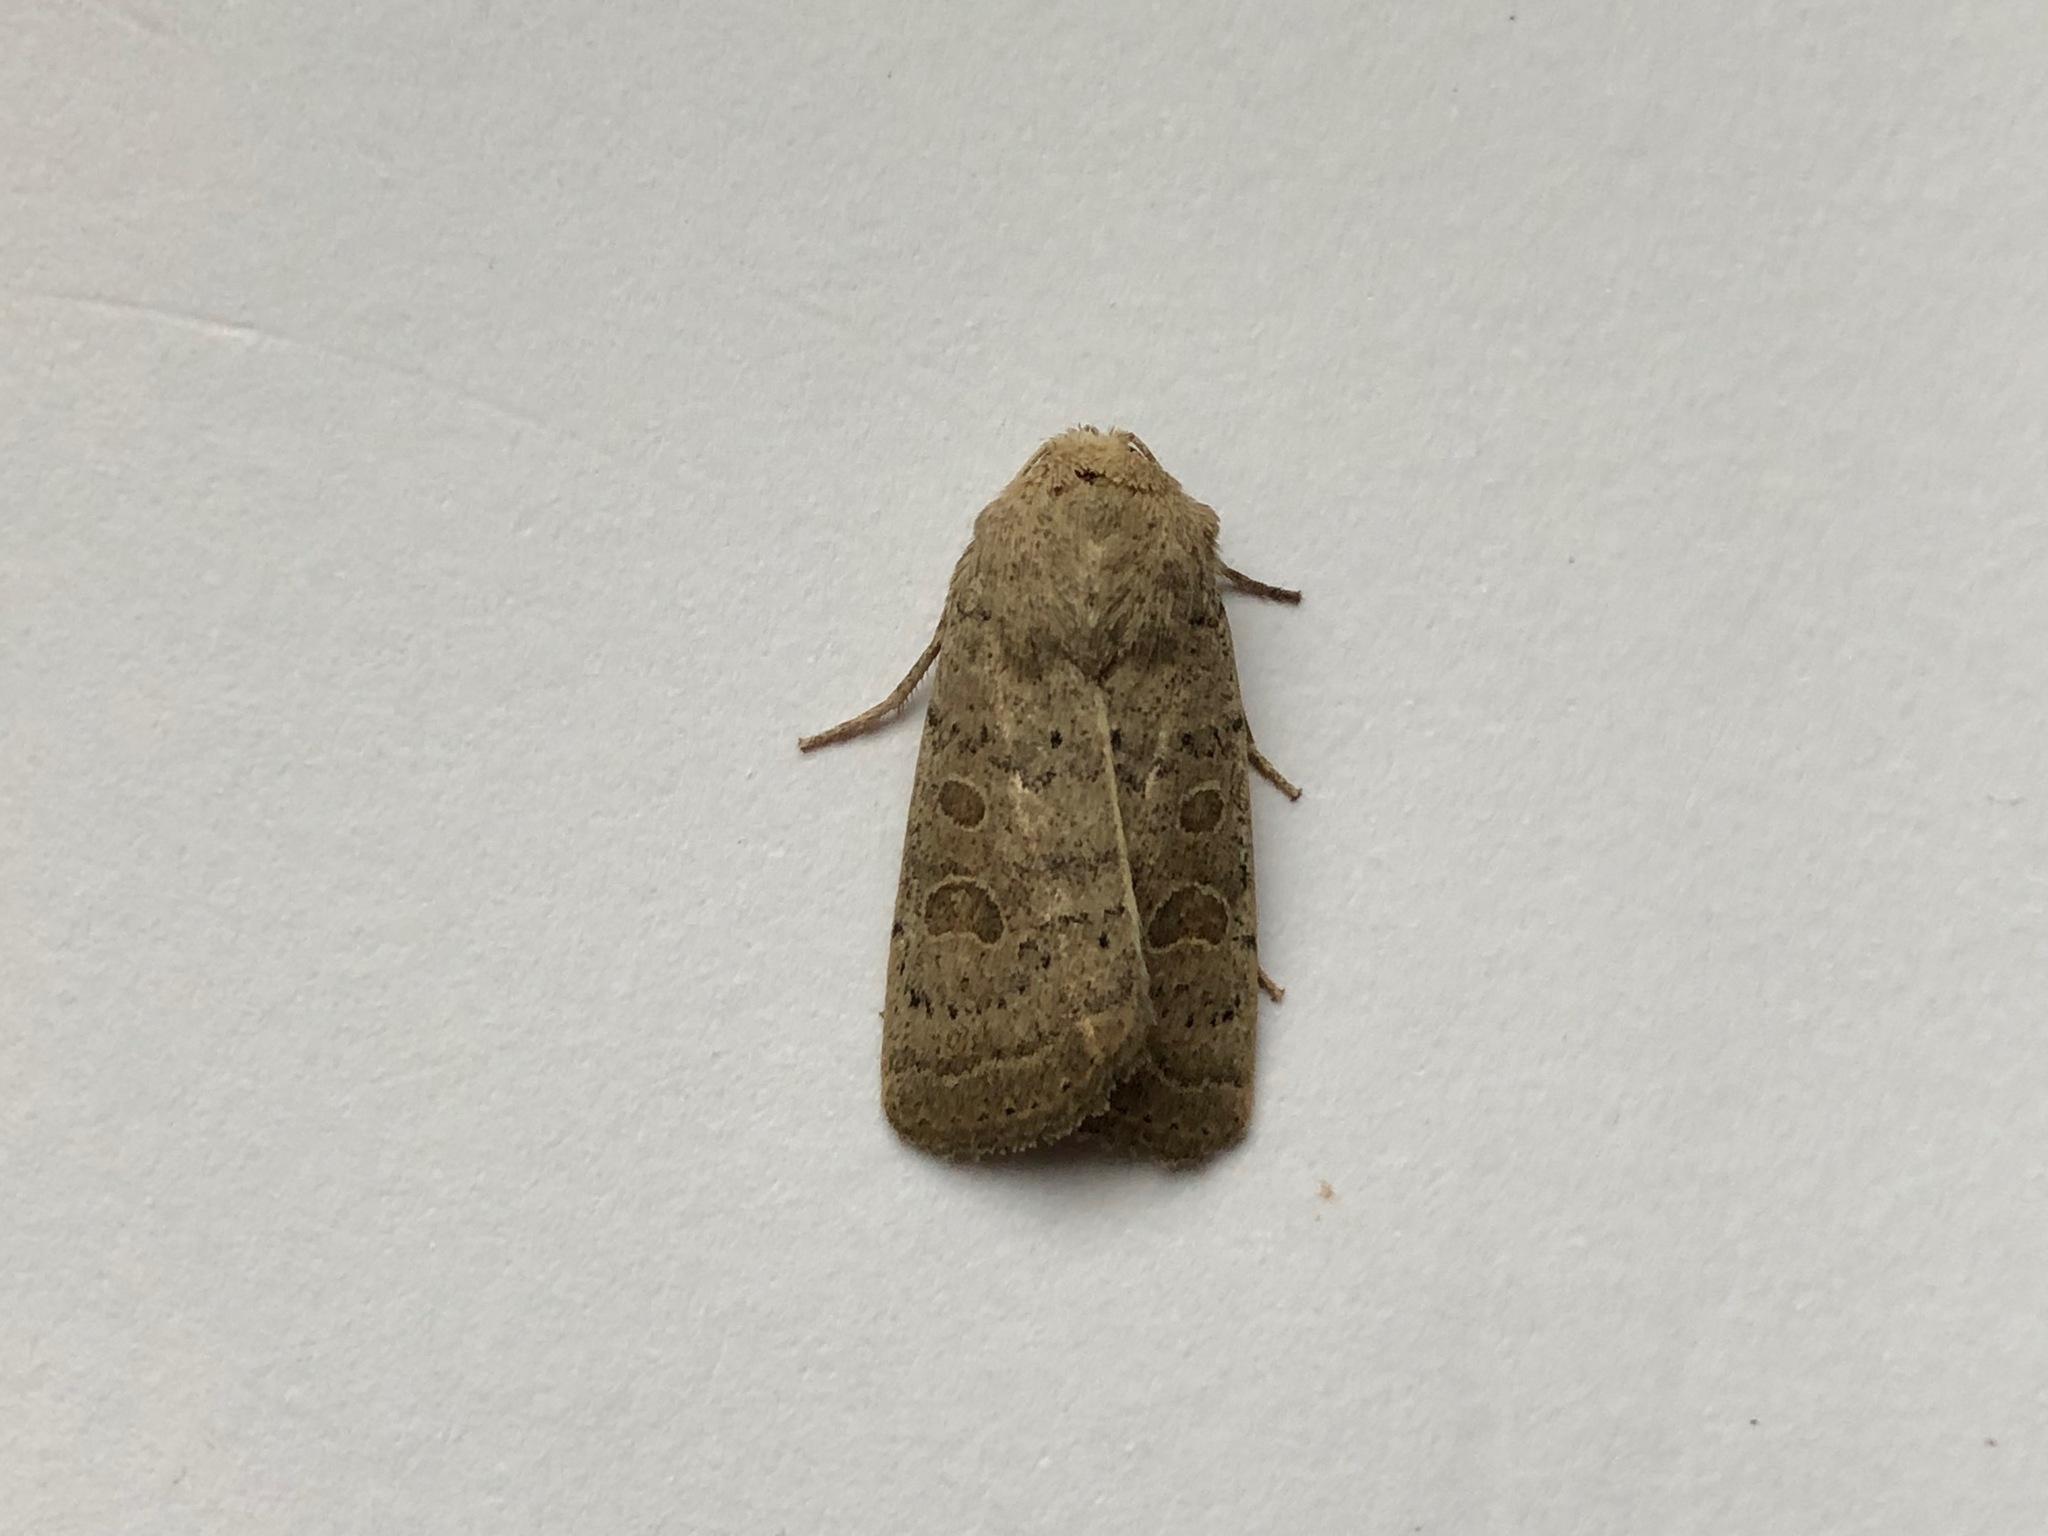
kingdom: Animalia
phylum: Arthropoda
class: Insecta
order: Lepidoptera
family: Noctuidae
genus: Hoplodrina
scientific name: Hoplodrina ambigua
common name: Vine's rustic
